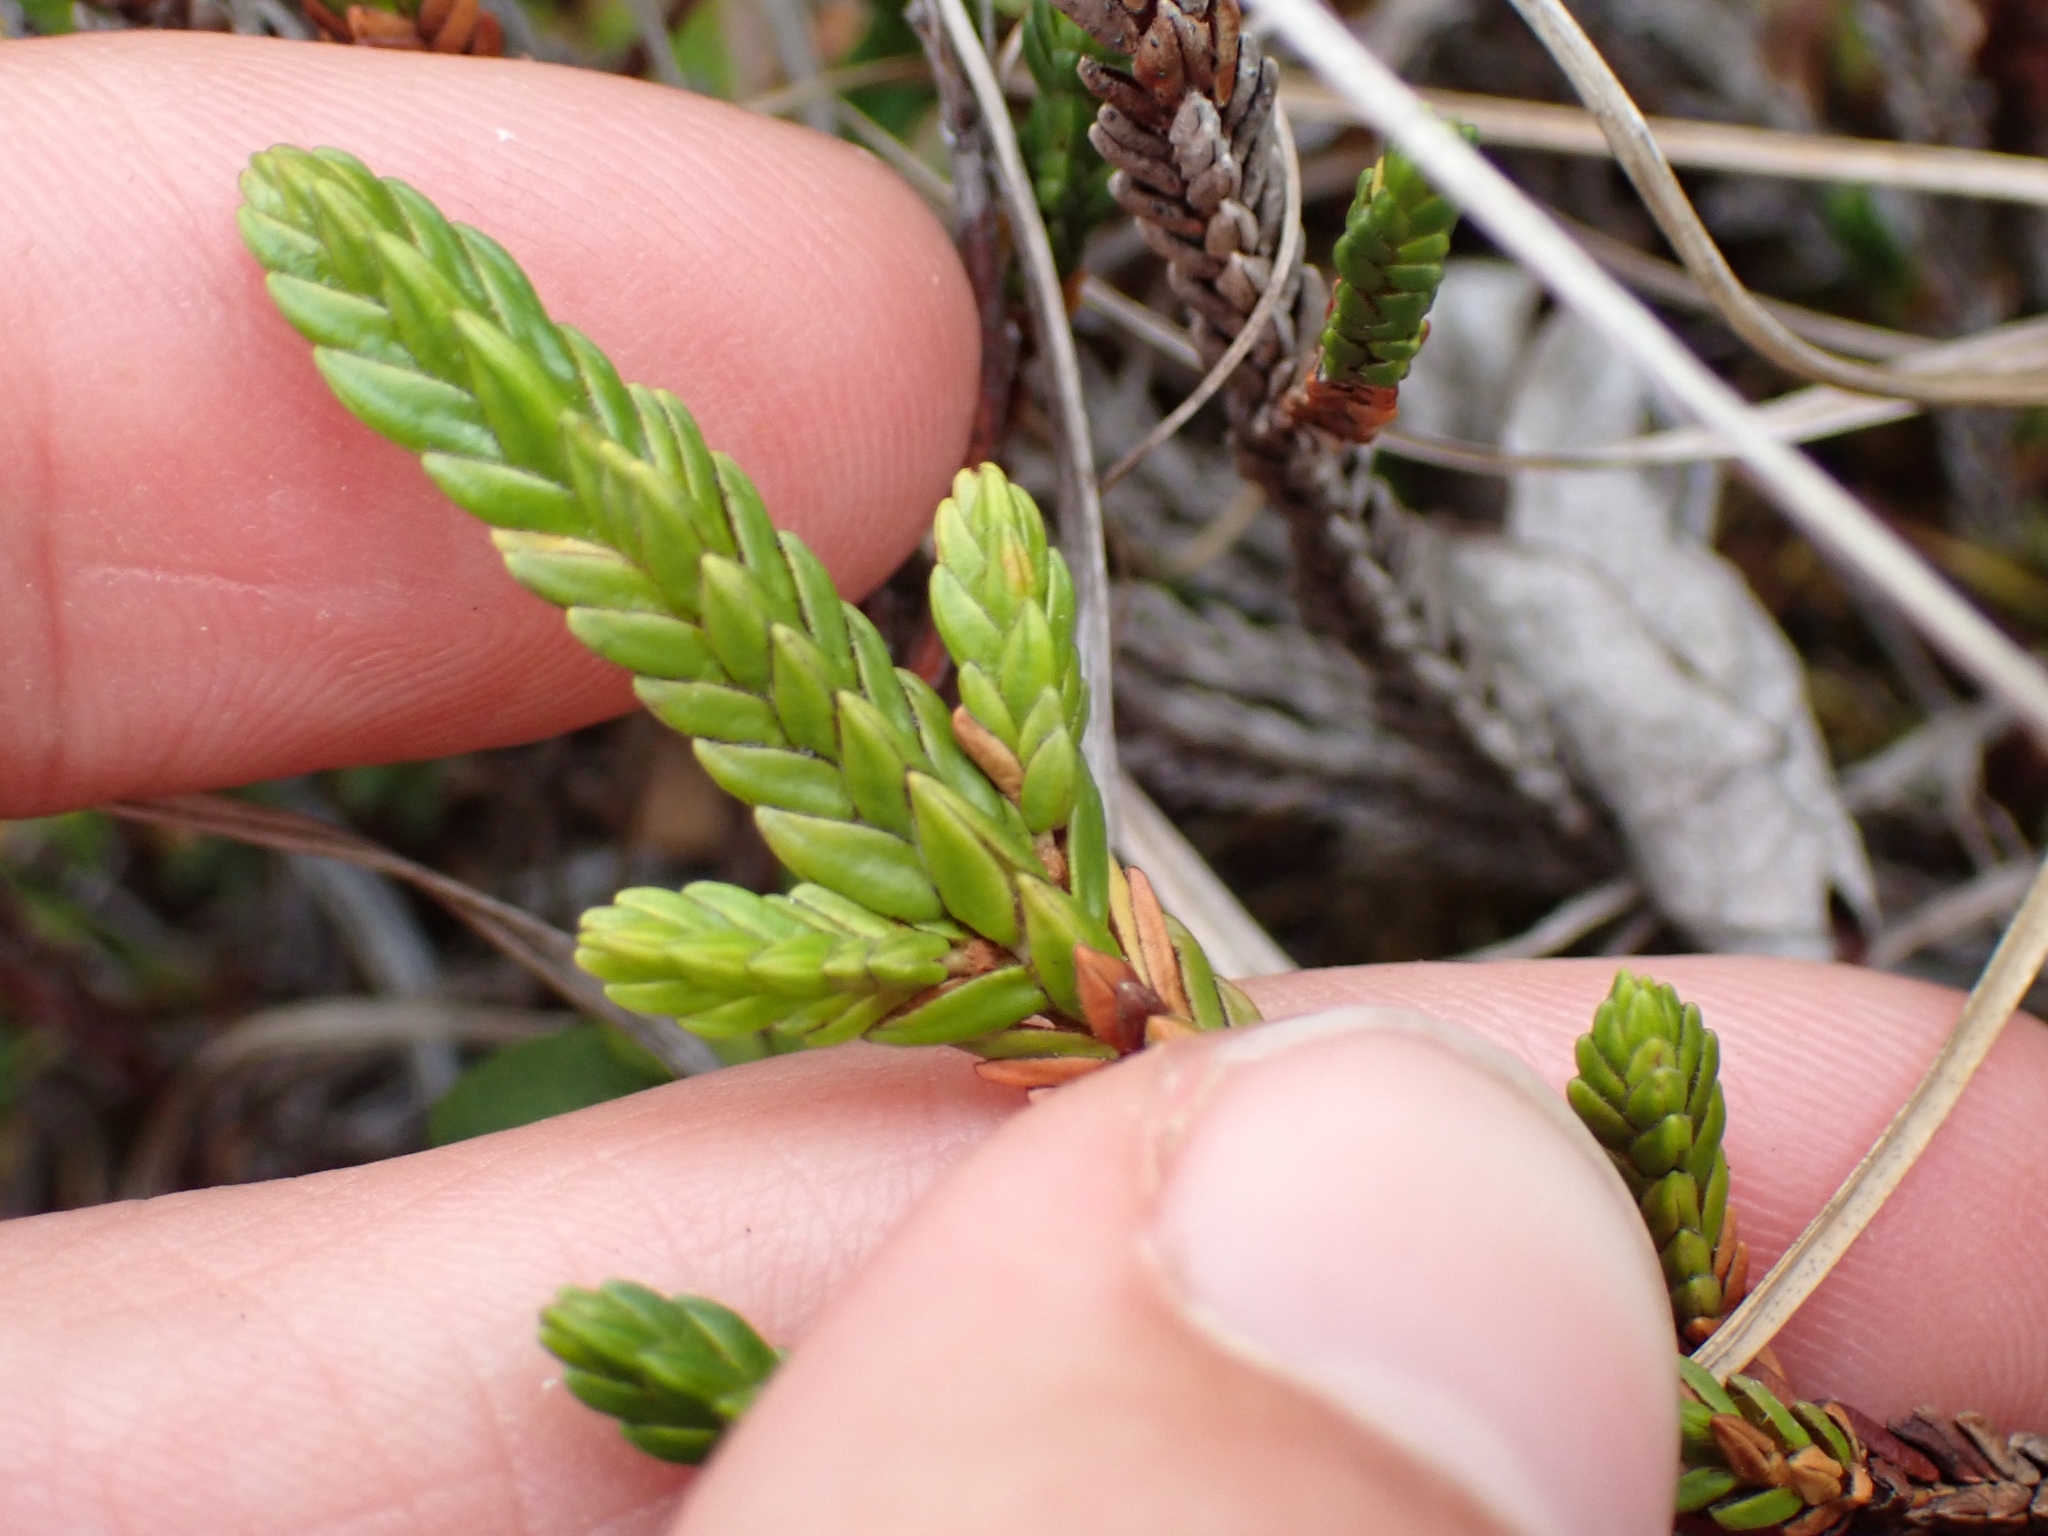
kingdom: Plantae
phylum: Tracheophyta
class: Magnoliopsida
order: Ericales
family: Ericaceae
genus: Cassiope
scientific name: Cassiope tetragona
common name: Arctic bell heather
